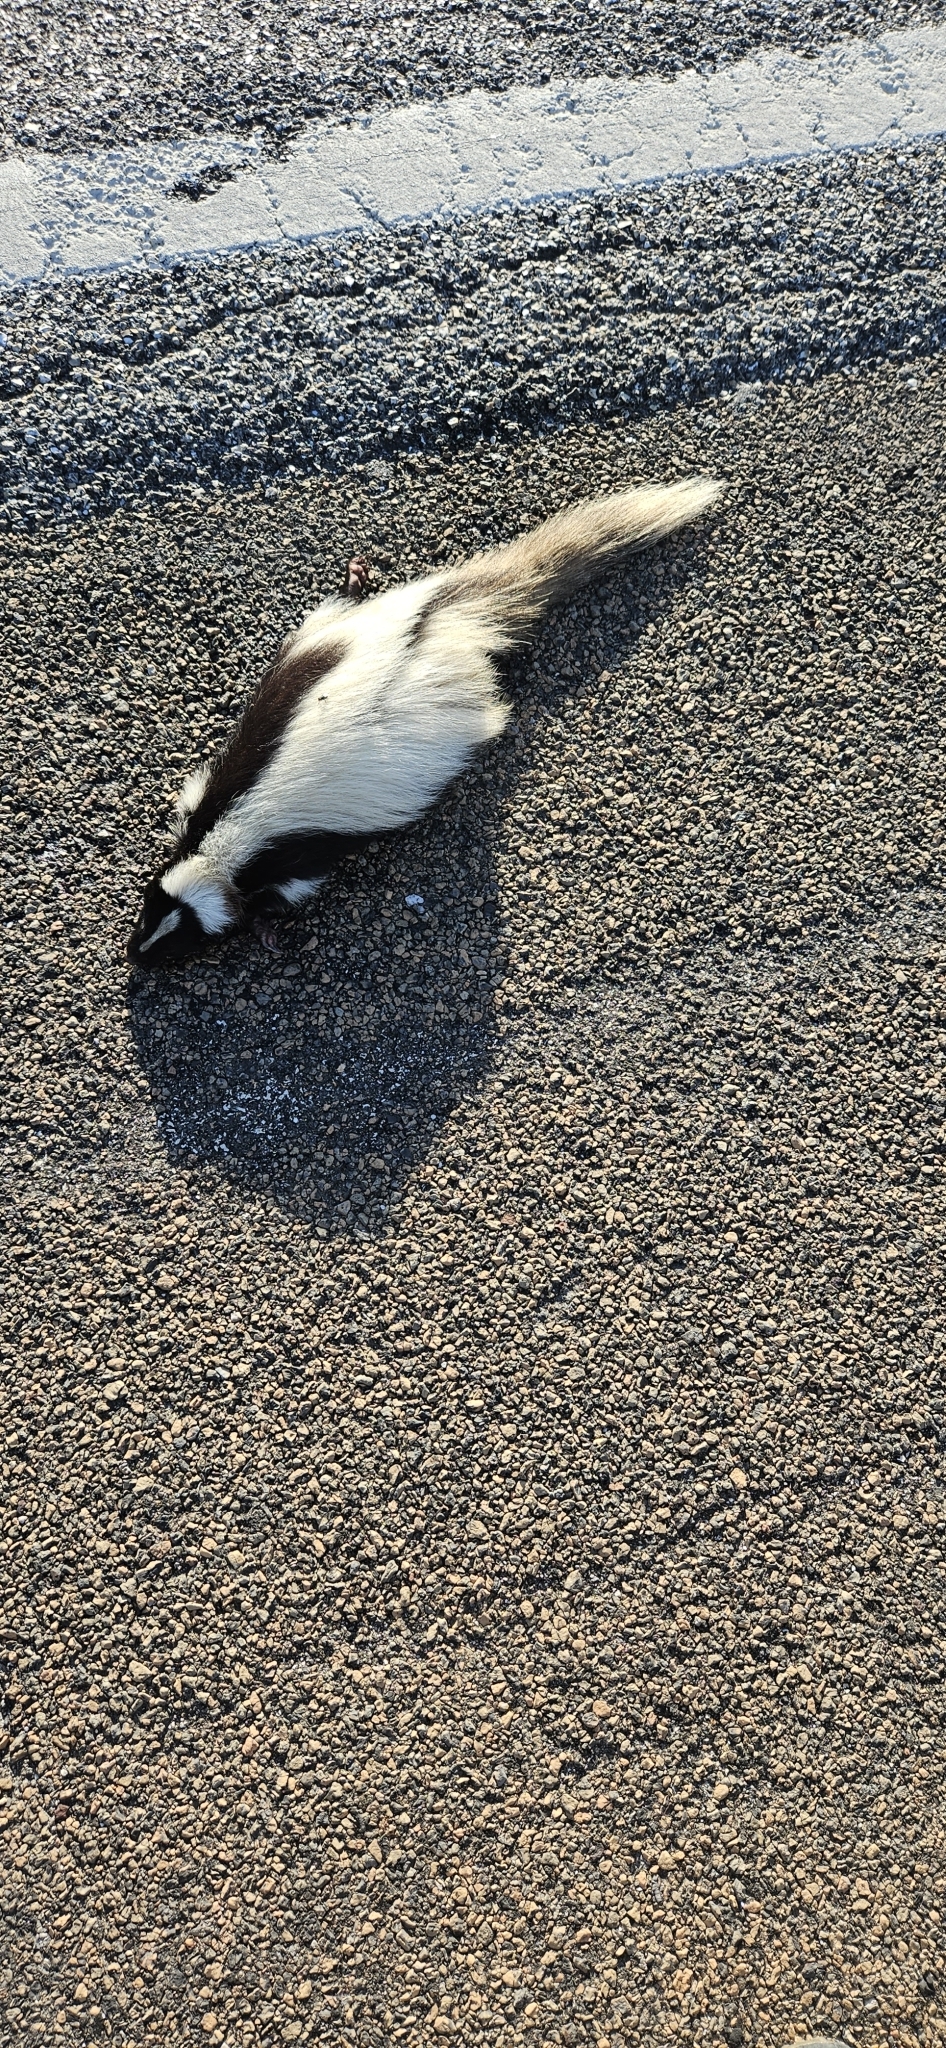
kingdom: Animalia
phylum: Chordata
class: Mammalia
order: Carnivora
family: Mephitidae
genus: Mephitis
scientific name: Mephitis mephitis
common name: Striped skunk
